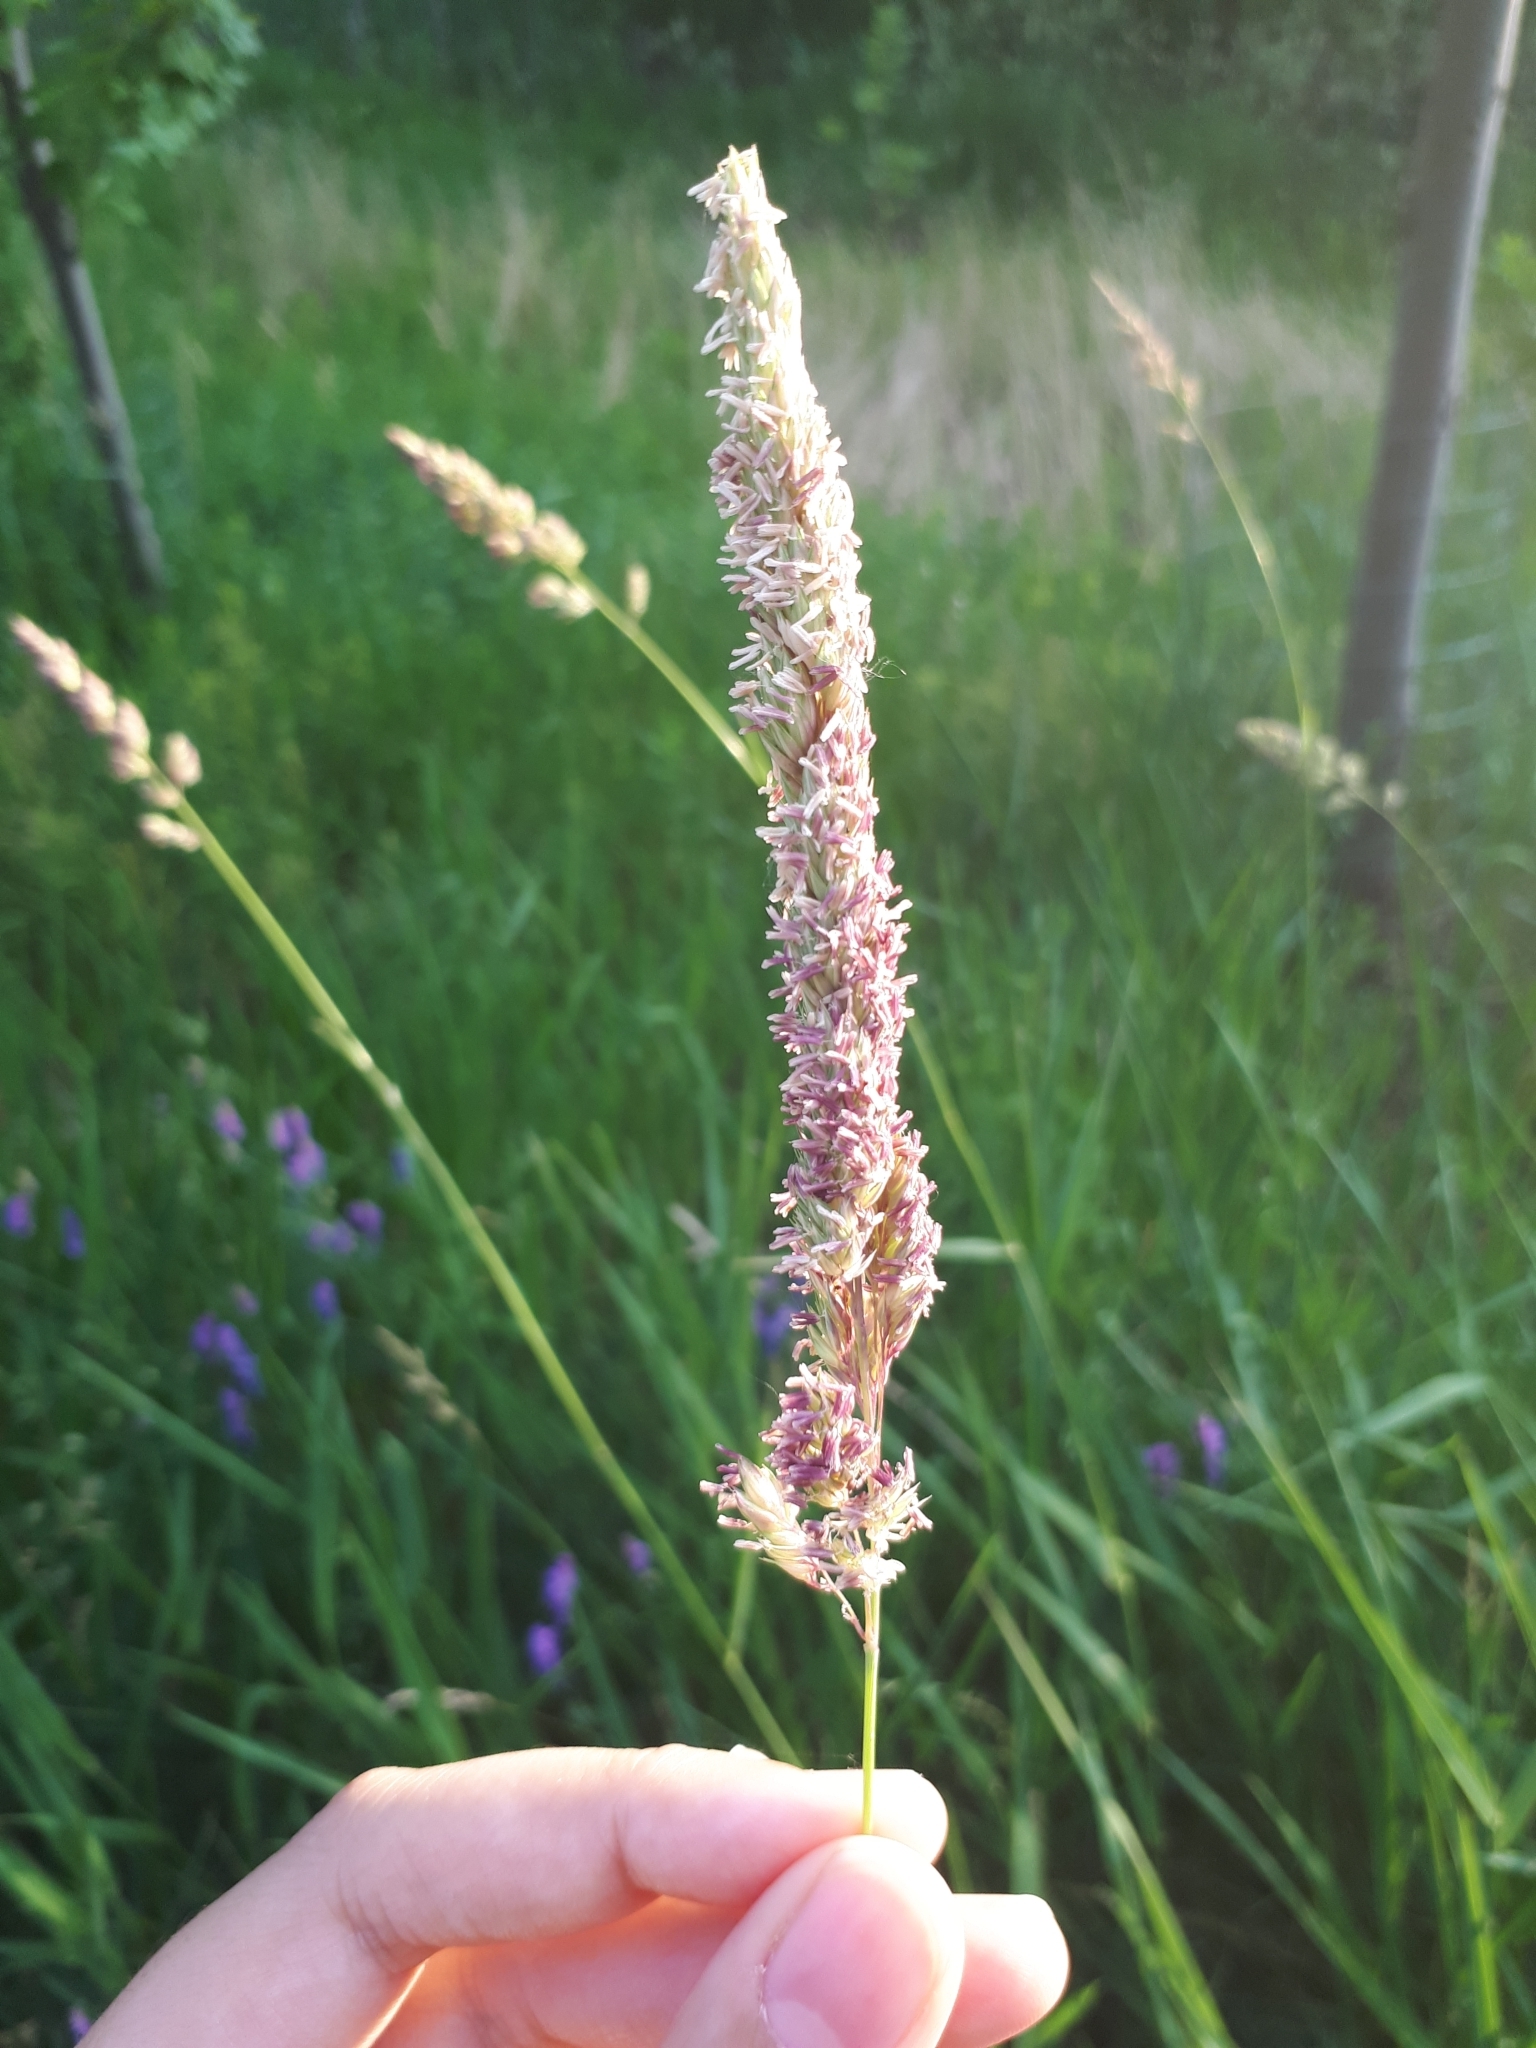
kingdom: Plantae
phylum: Tracheophyta
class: Liliopsida
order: Poales
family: Poaceae
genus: Phalaris
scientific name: Phalaris arundinacea
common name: Reed canary-grass
